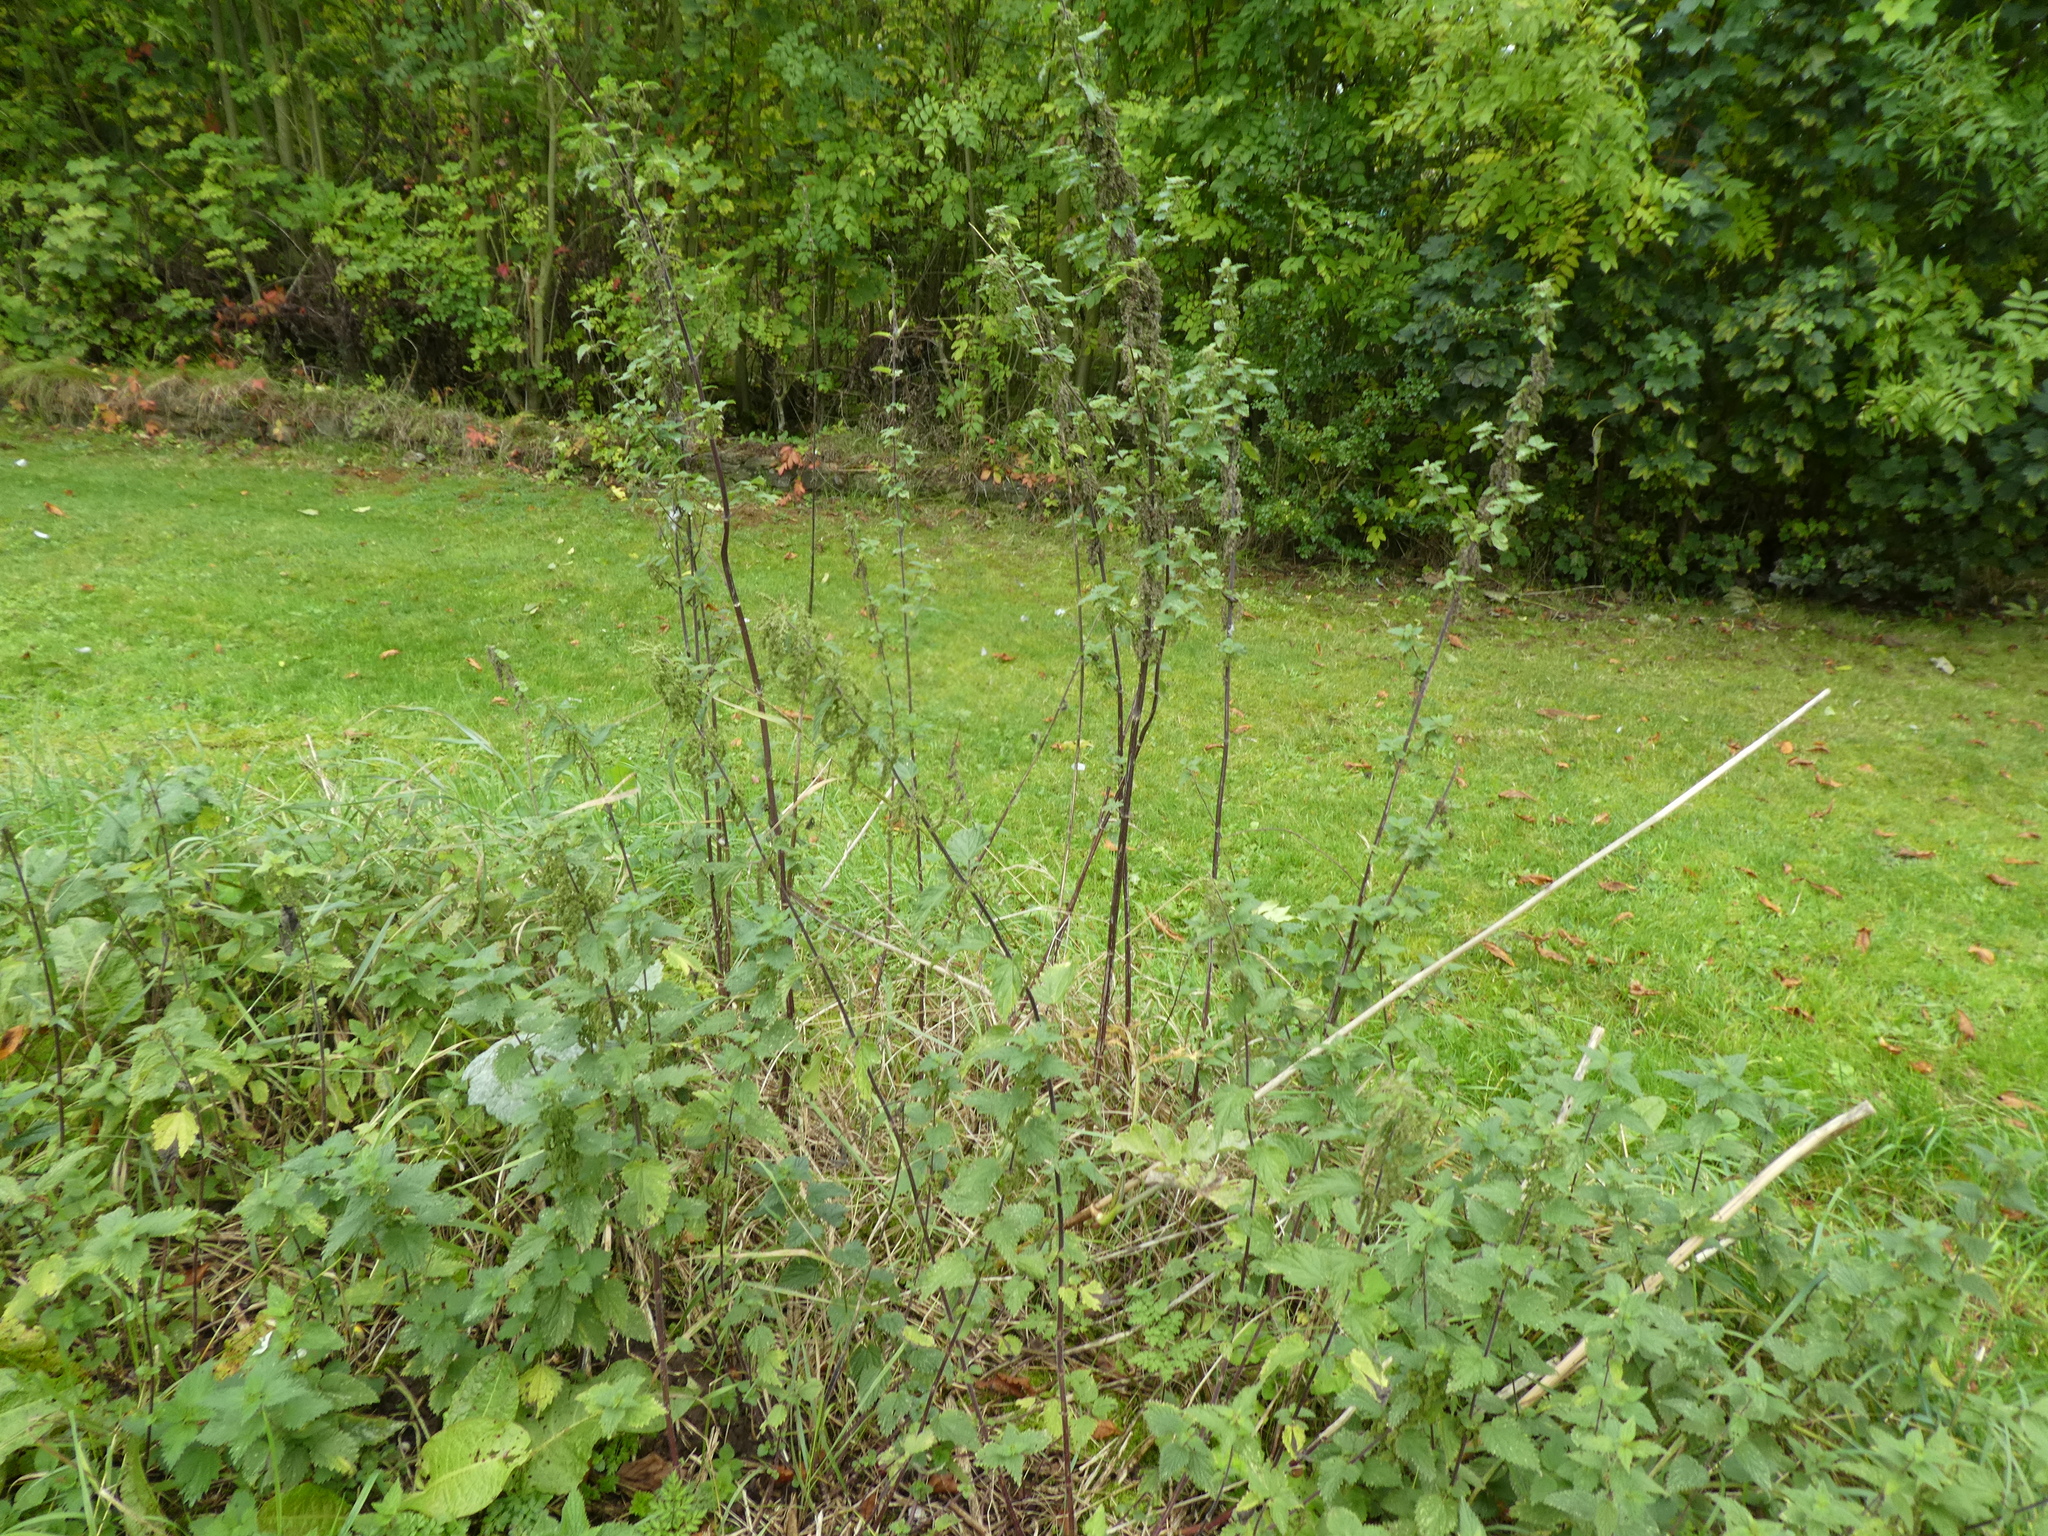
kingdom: Plantae
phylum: Tracheophyta
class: Magnoliopsida
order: Rosales
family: Urticaceae
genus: Urtica
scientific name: Urtica dioica
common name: Common nettle
